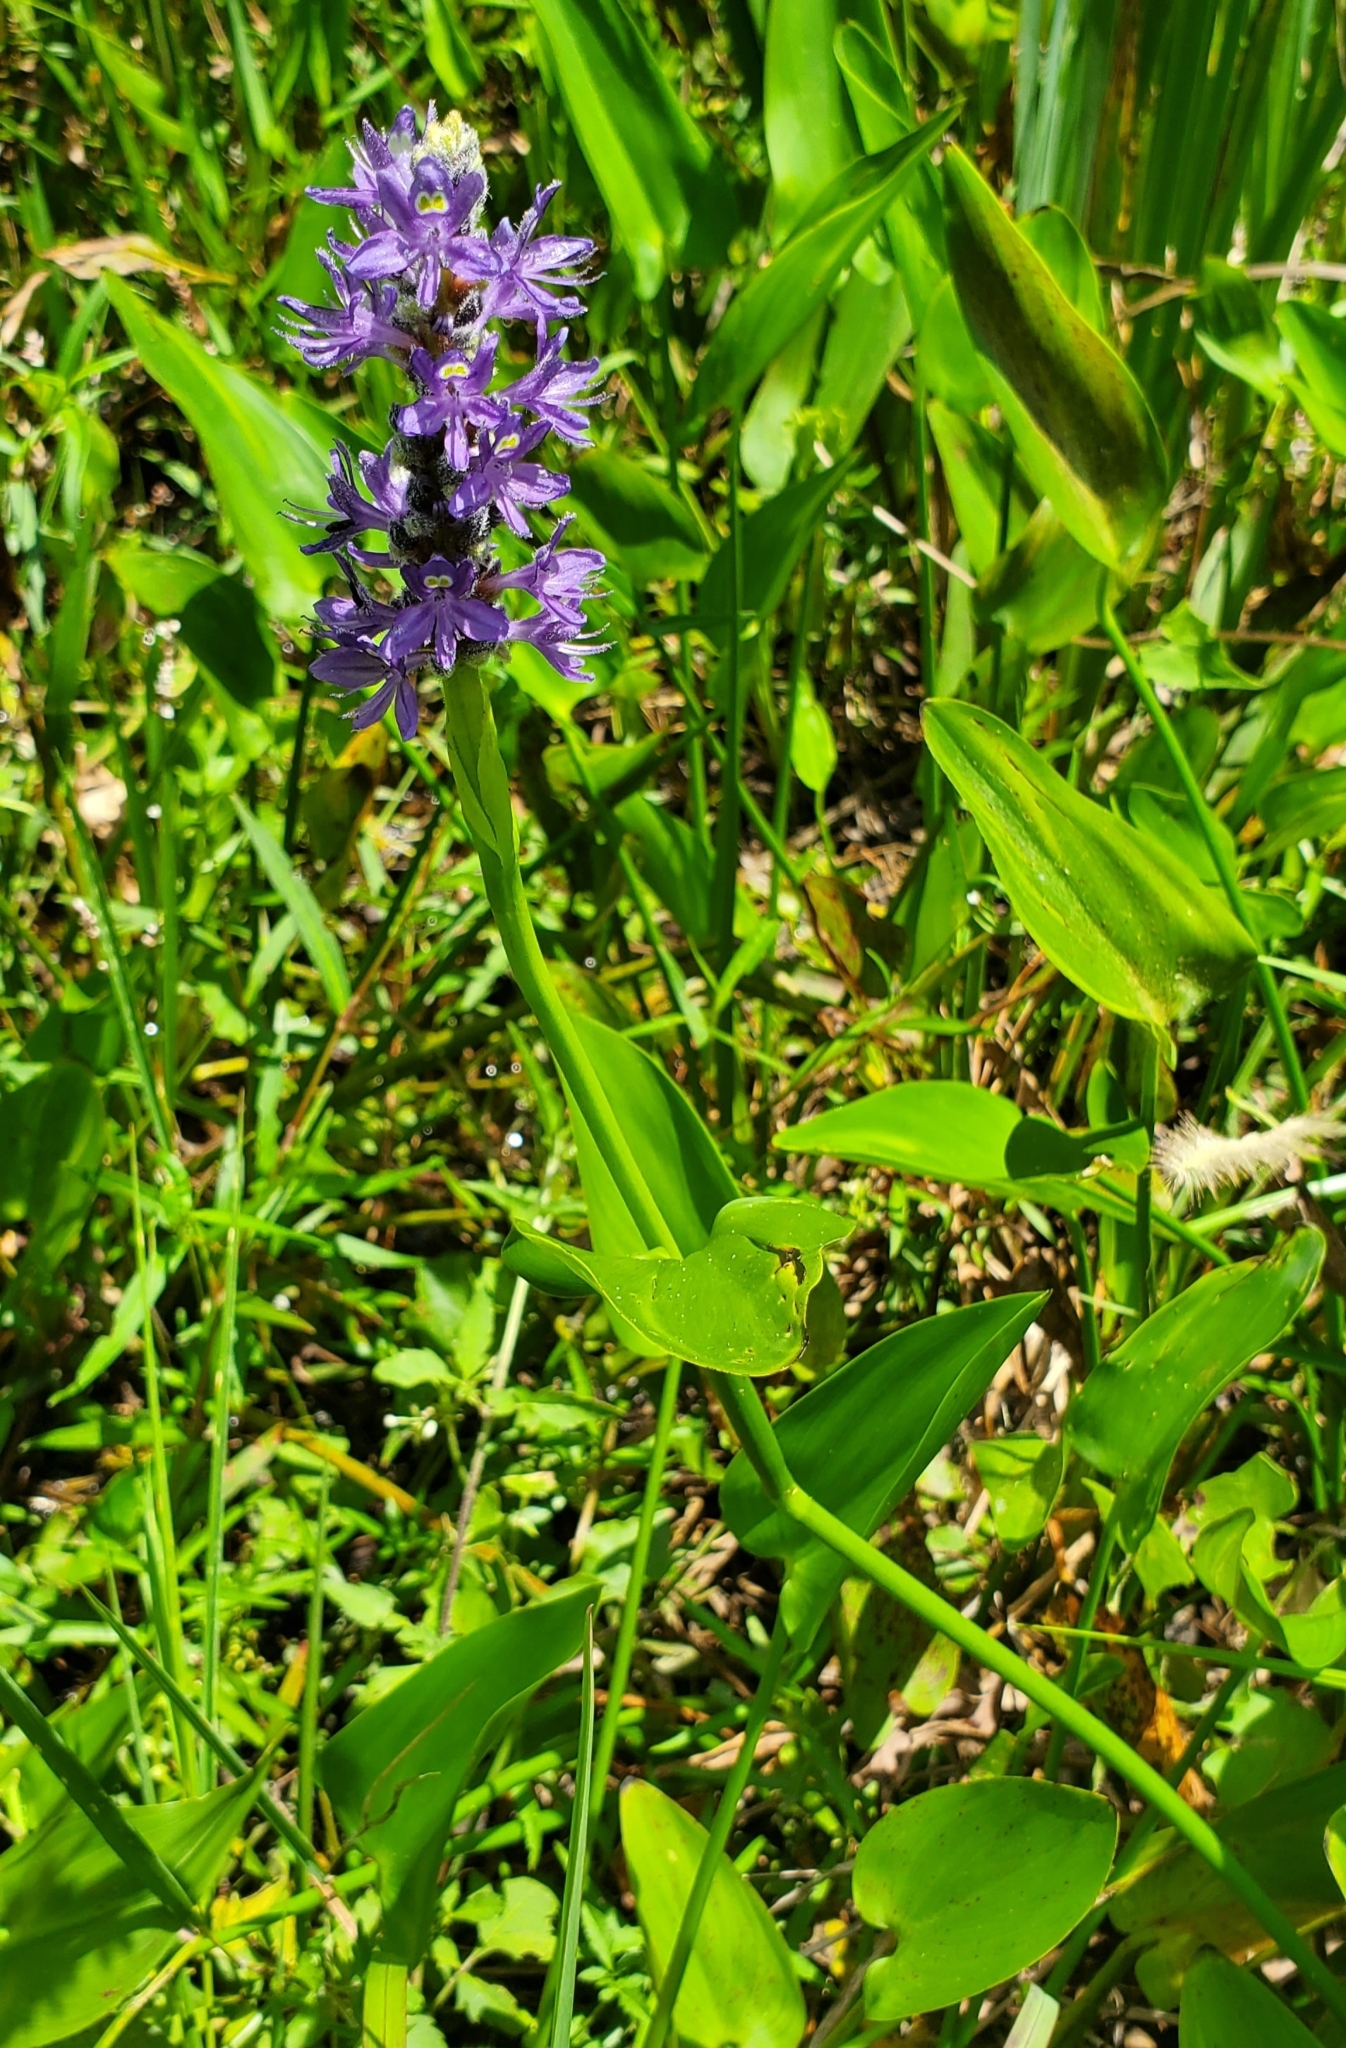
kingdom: Plantae
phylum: Tracheophyta
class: Liliopsida
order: Commelinales
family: Pontederiaceae
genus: Pontederia
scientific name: Pontederia cordata
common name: Pickerelweed
